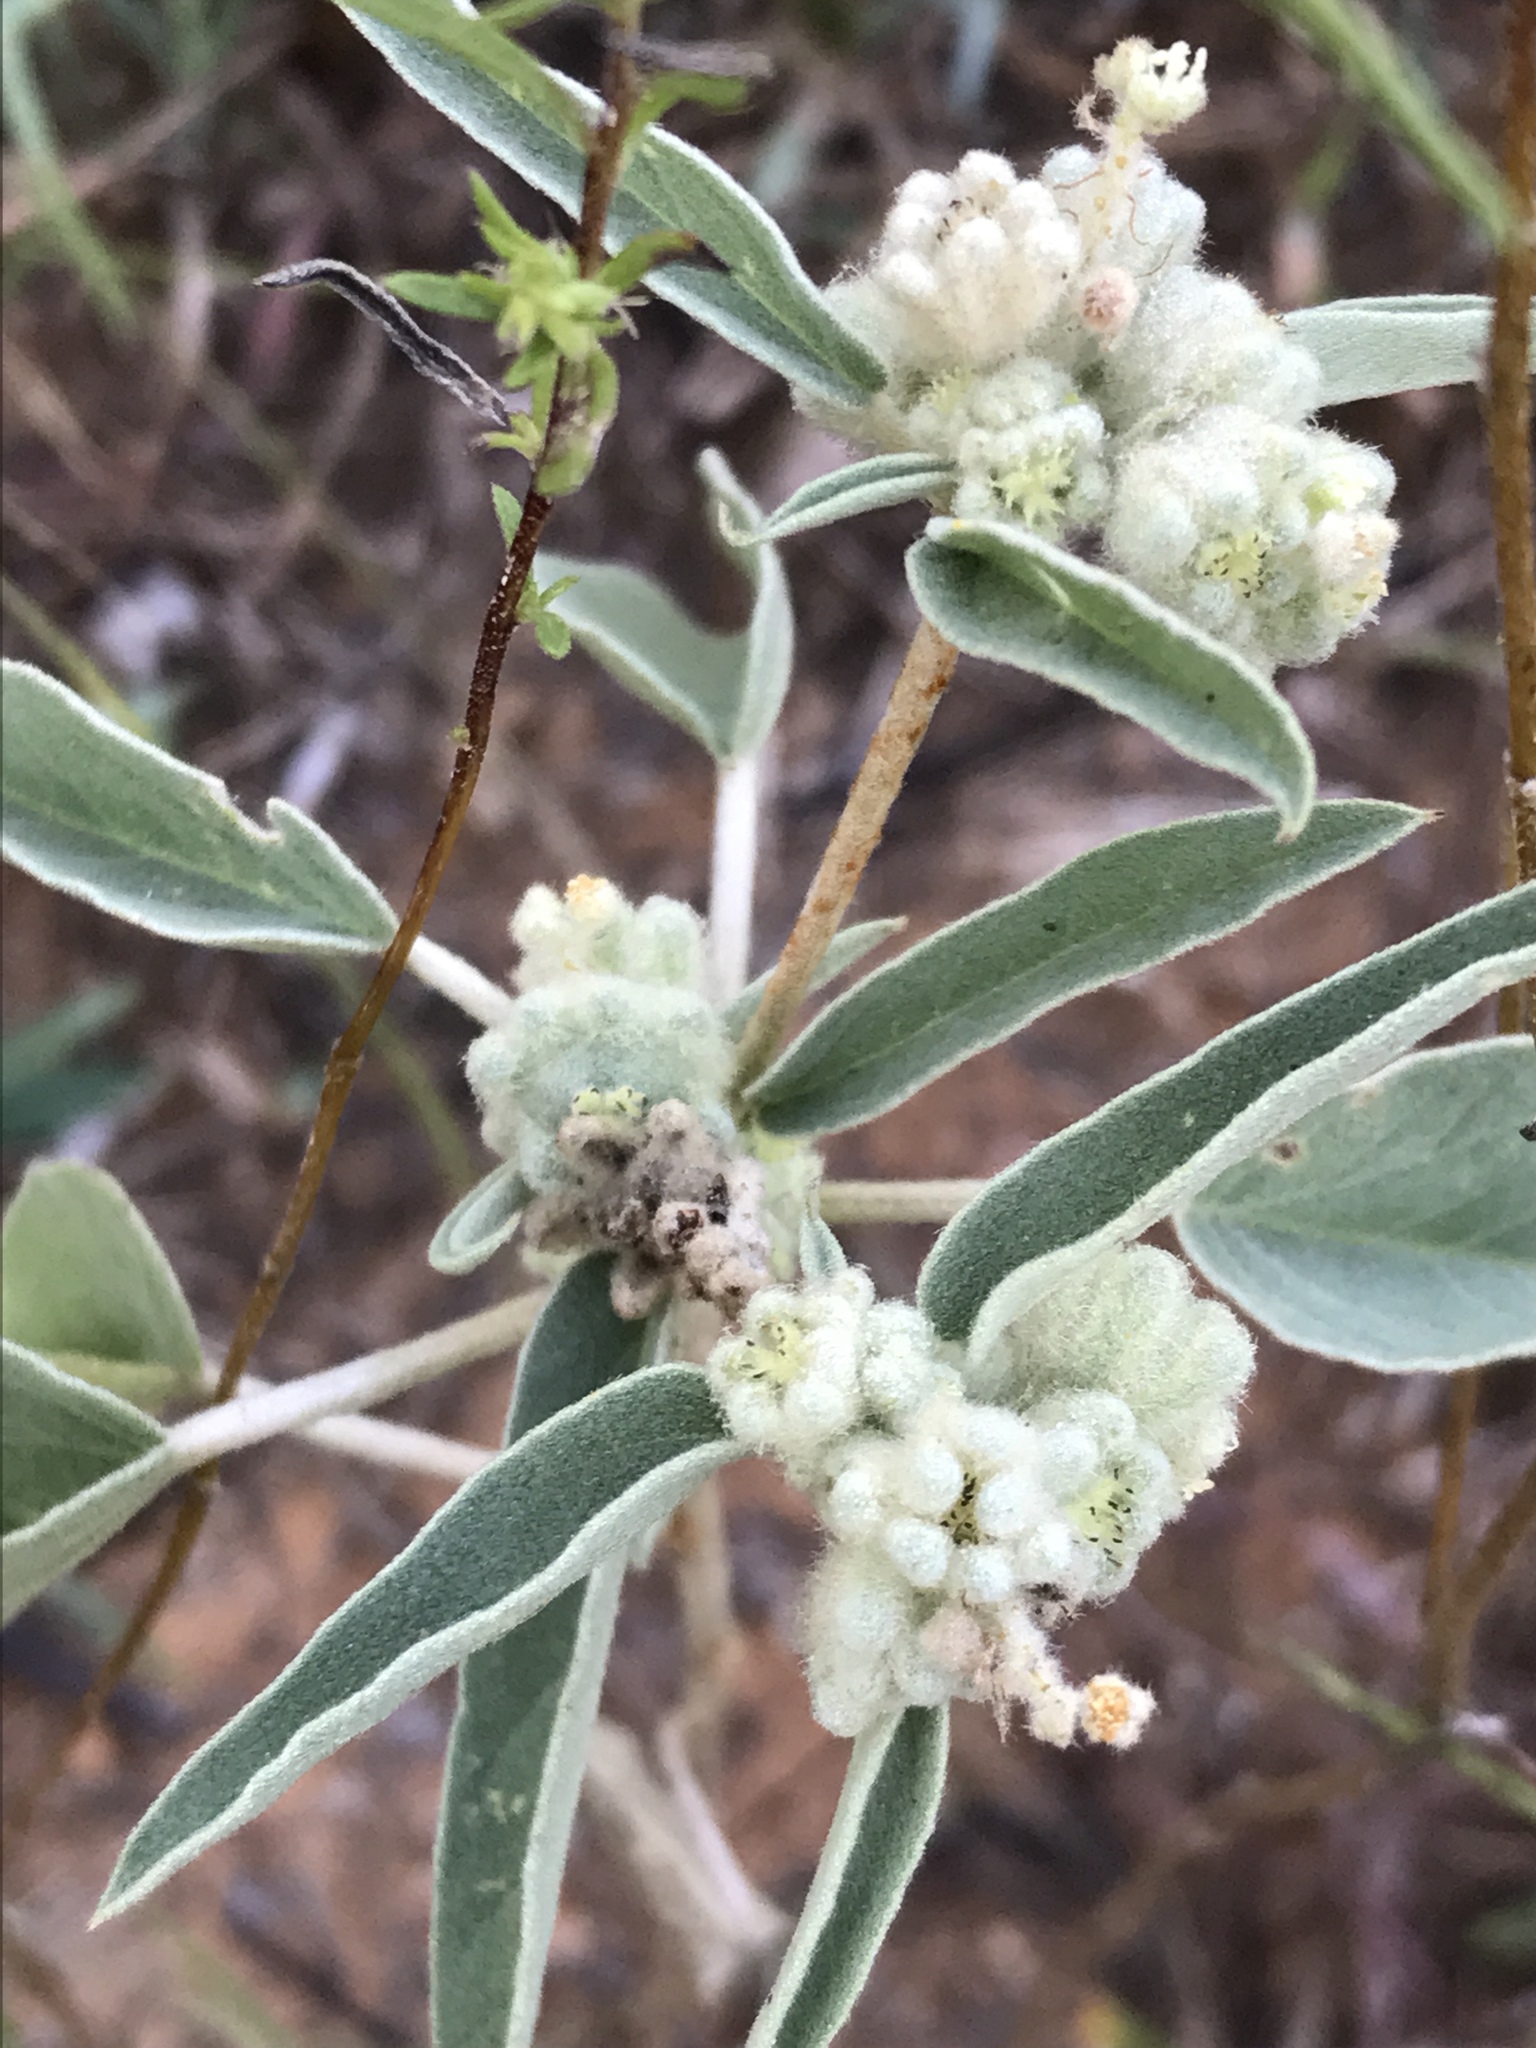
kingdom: Plantae
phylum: Tracheophyta
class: Magnoliopsida
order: Malpighiales
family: Euphorbiaceae
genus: Croton
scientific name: Croton lindheimeri
